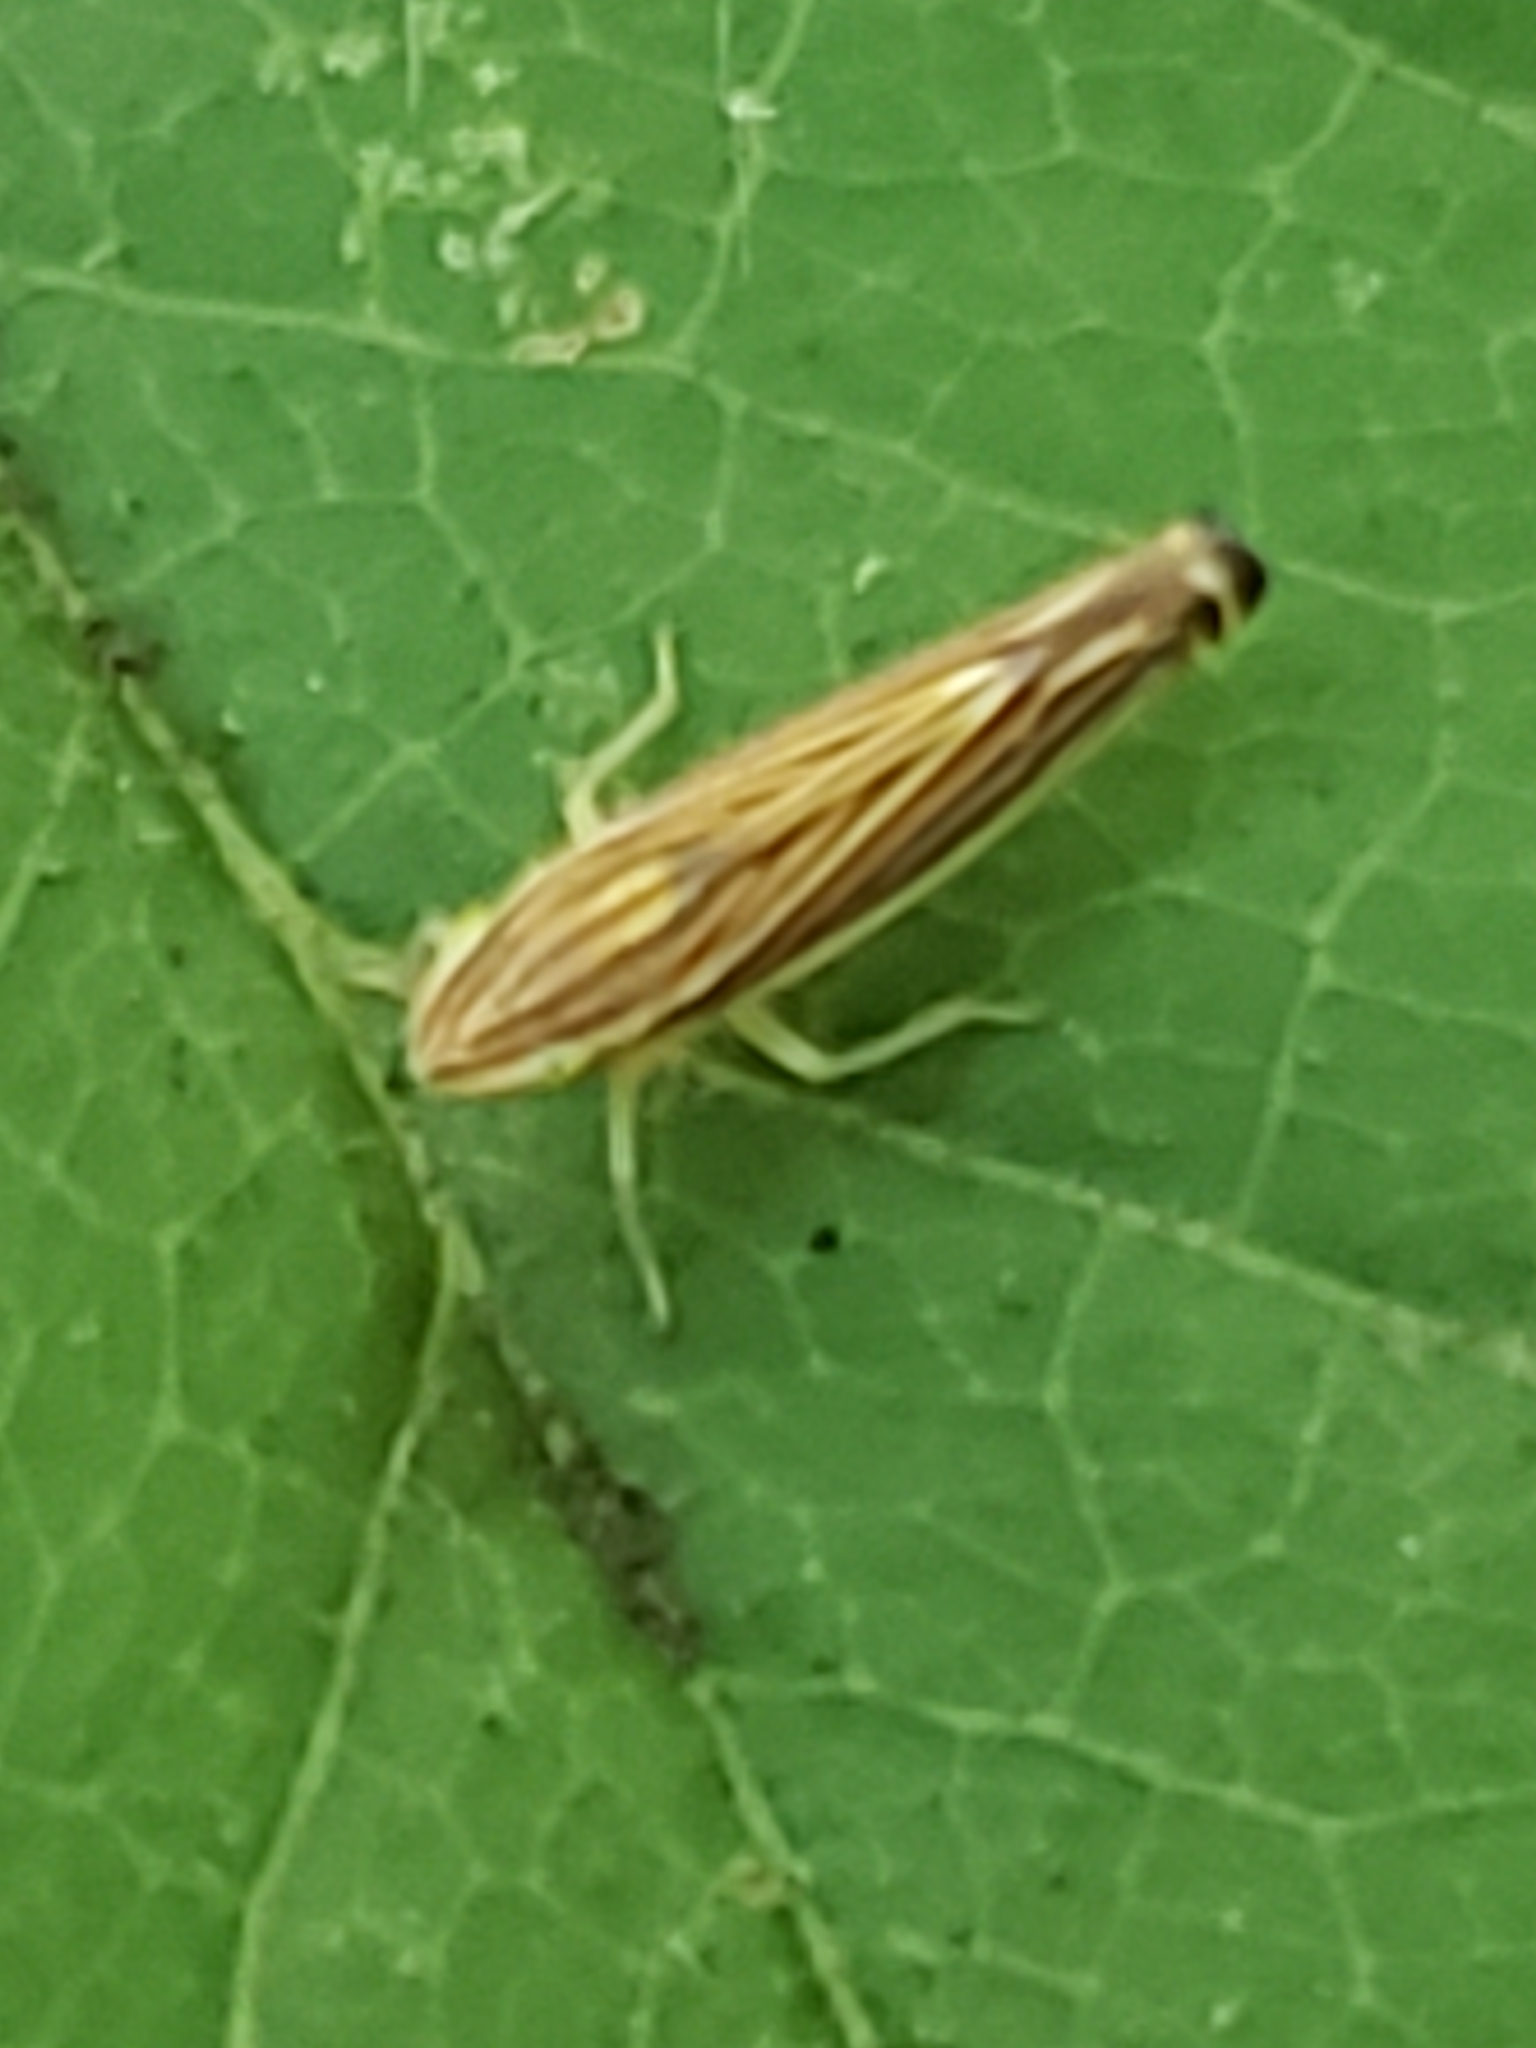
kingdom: Animalia
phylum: Arthropoda
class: Insecta
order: Hemiptera
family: Cicadellidae
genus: Sibovia
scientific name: Sibovia occatoria
